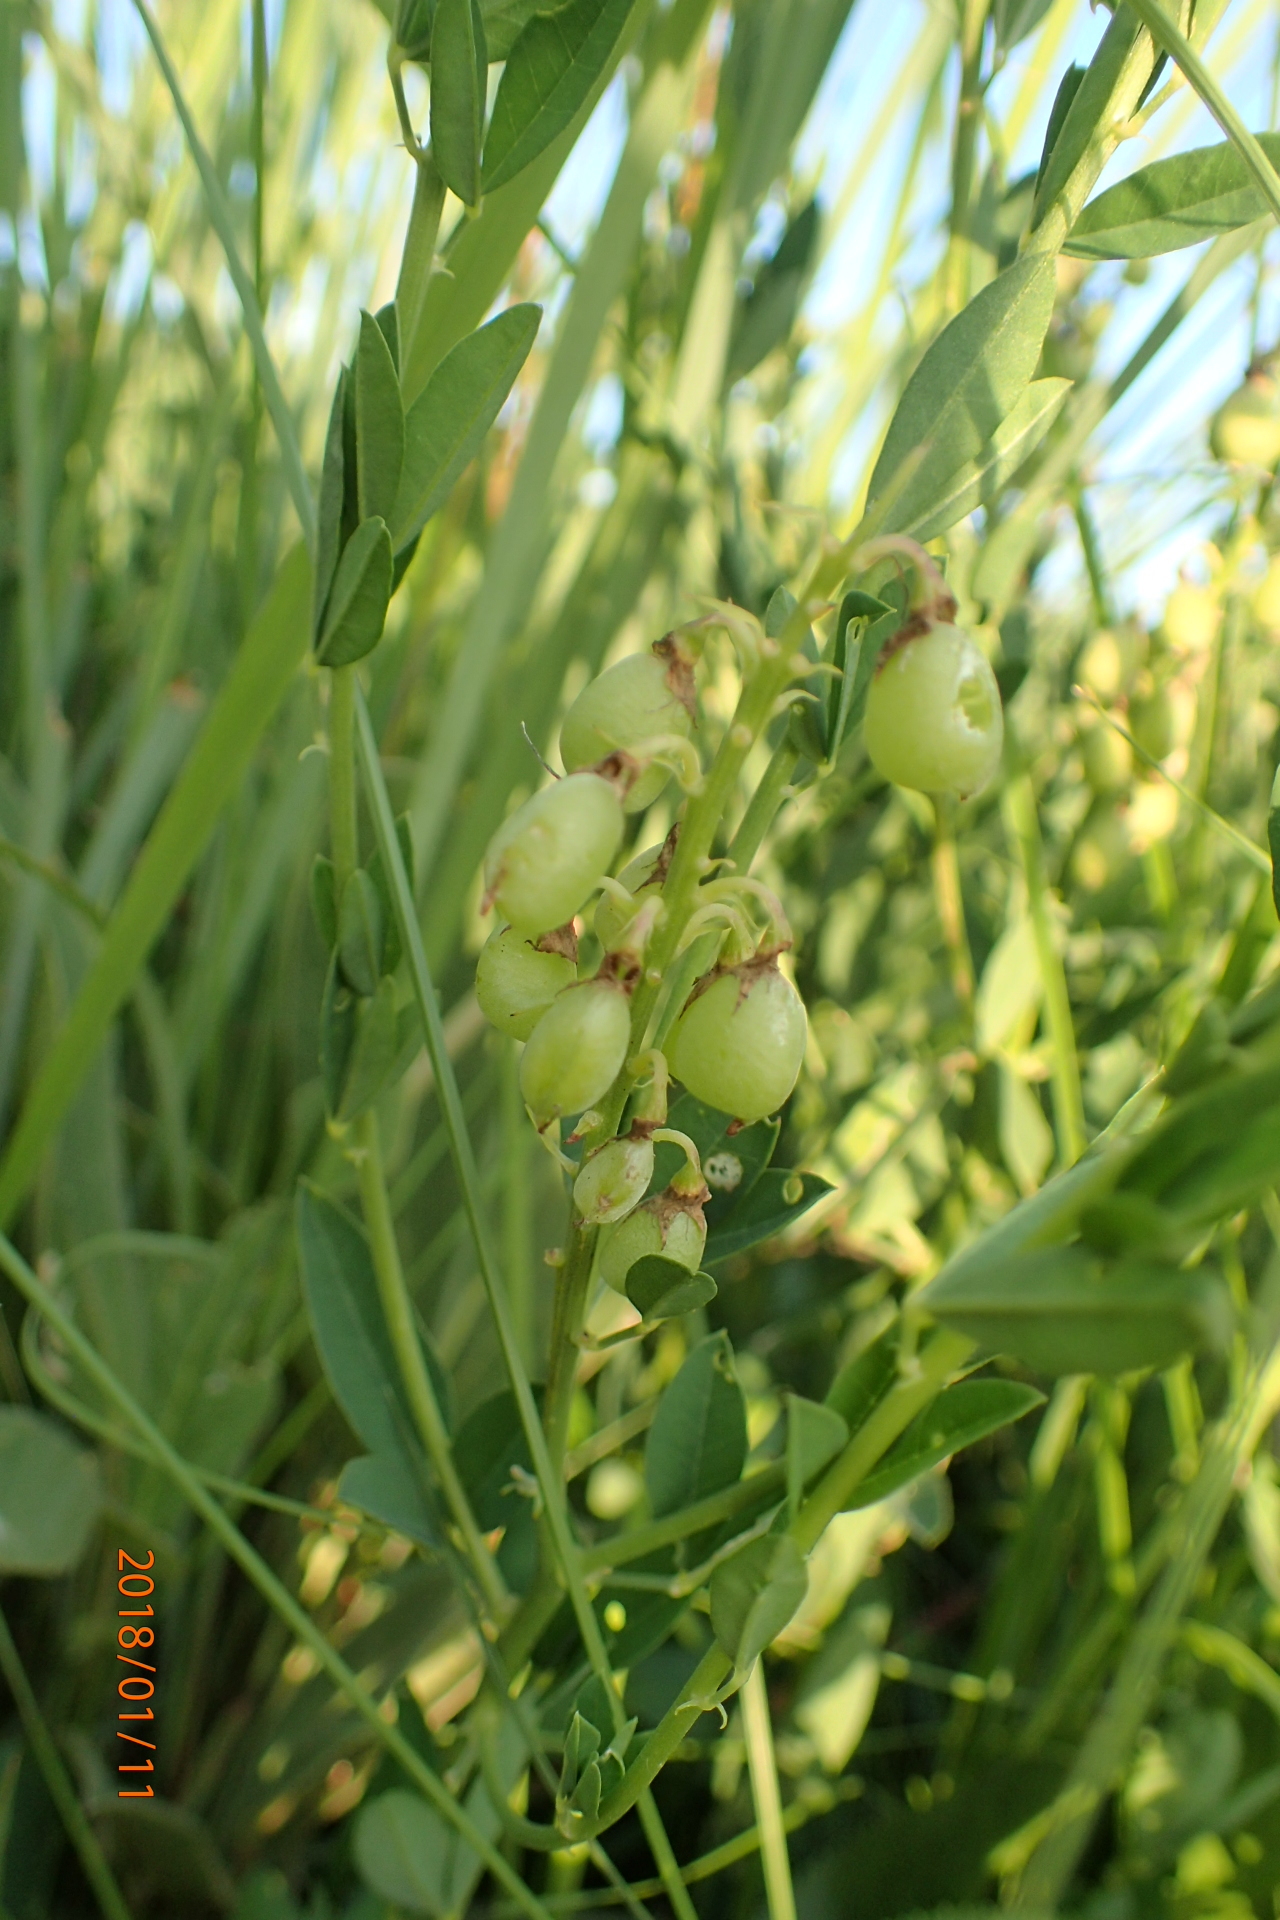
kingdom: Plantae
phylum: Tracheophyta
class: Magnoliopsida
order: Fabales
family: Fabaceae
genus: Crotalaria
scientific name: Crotalaria globifera
